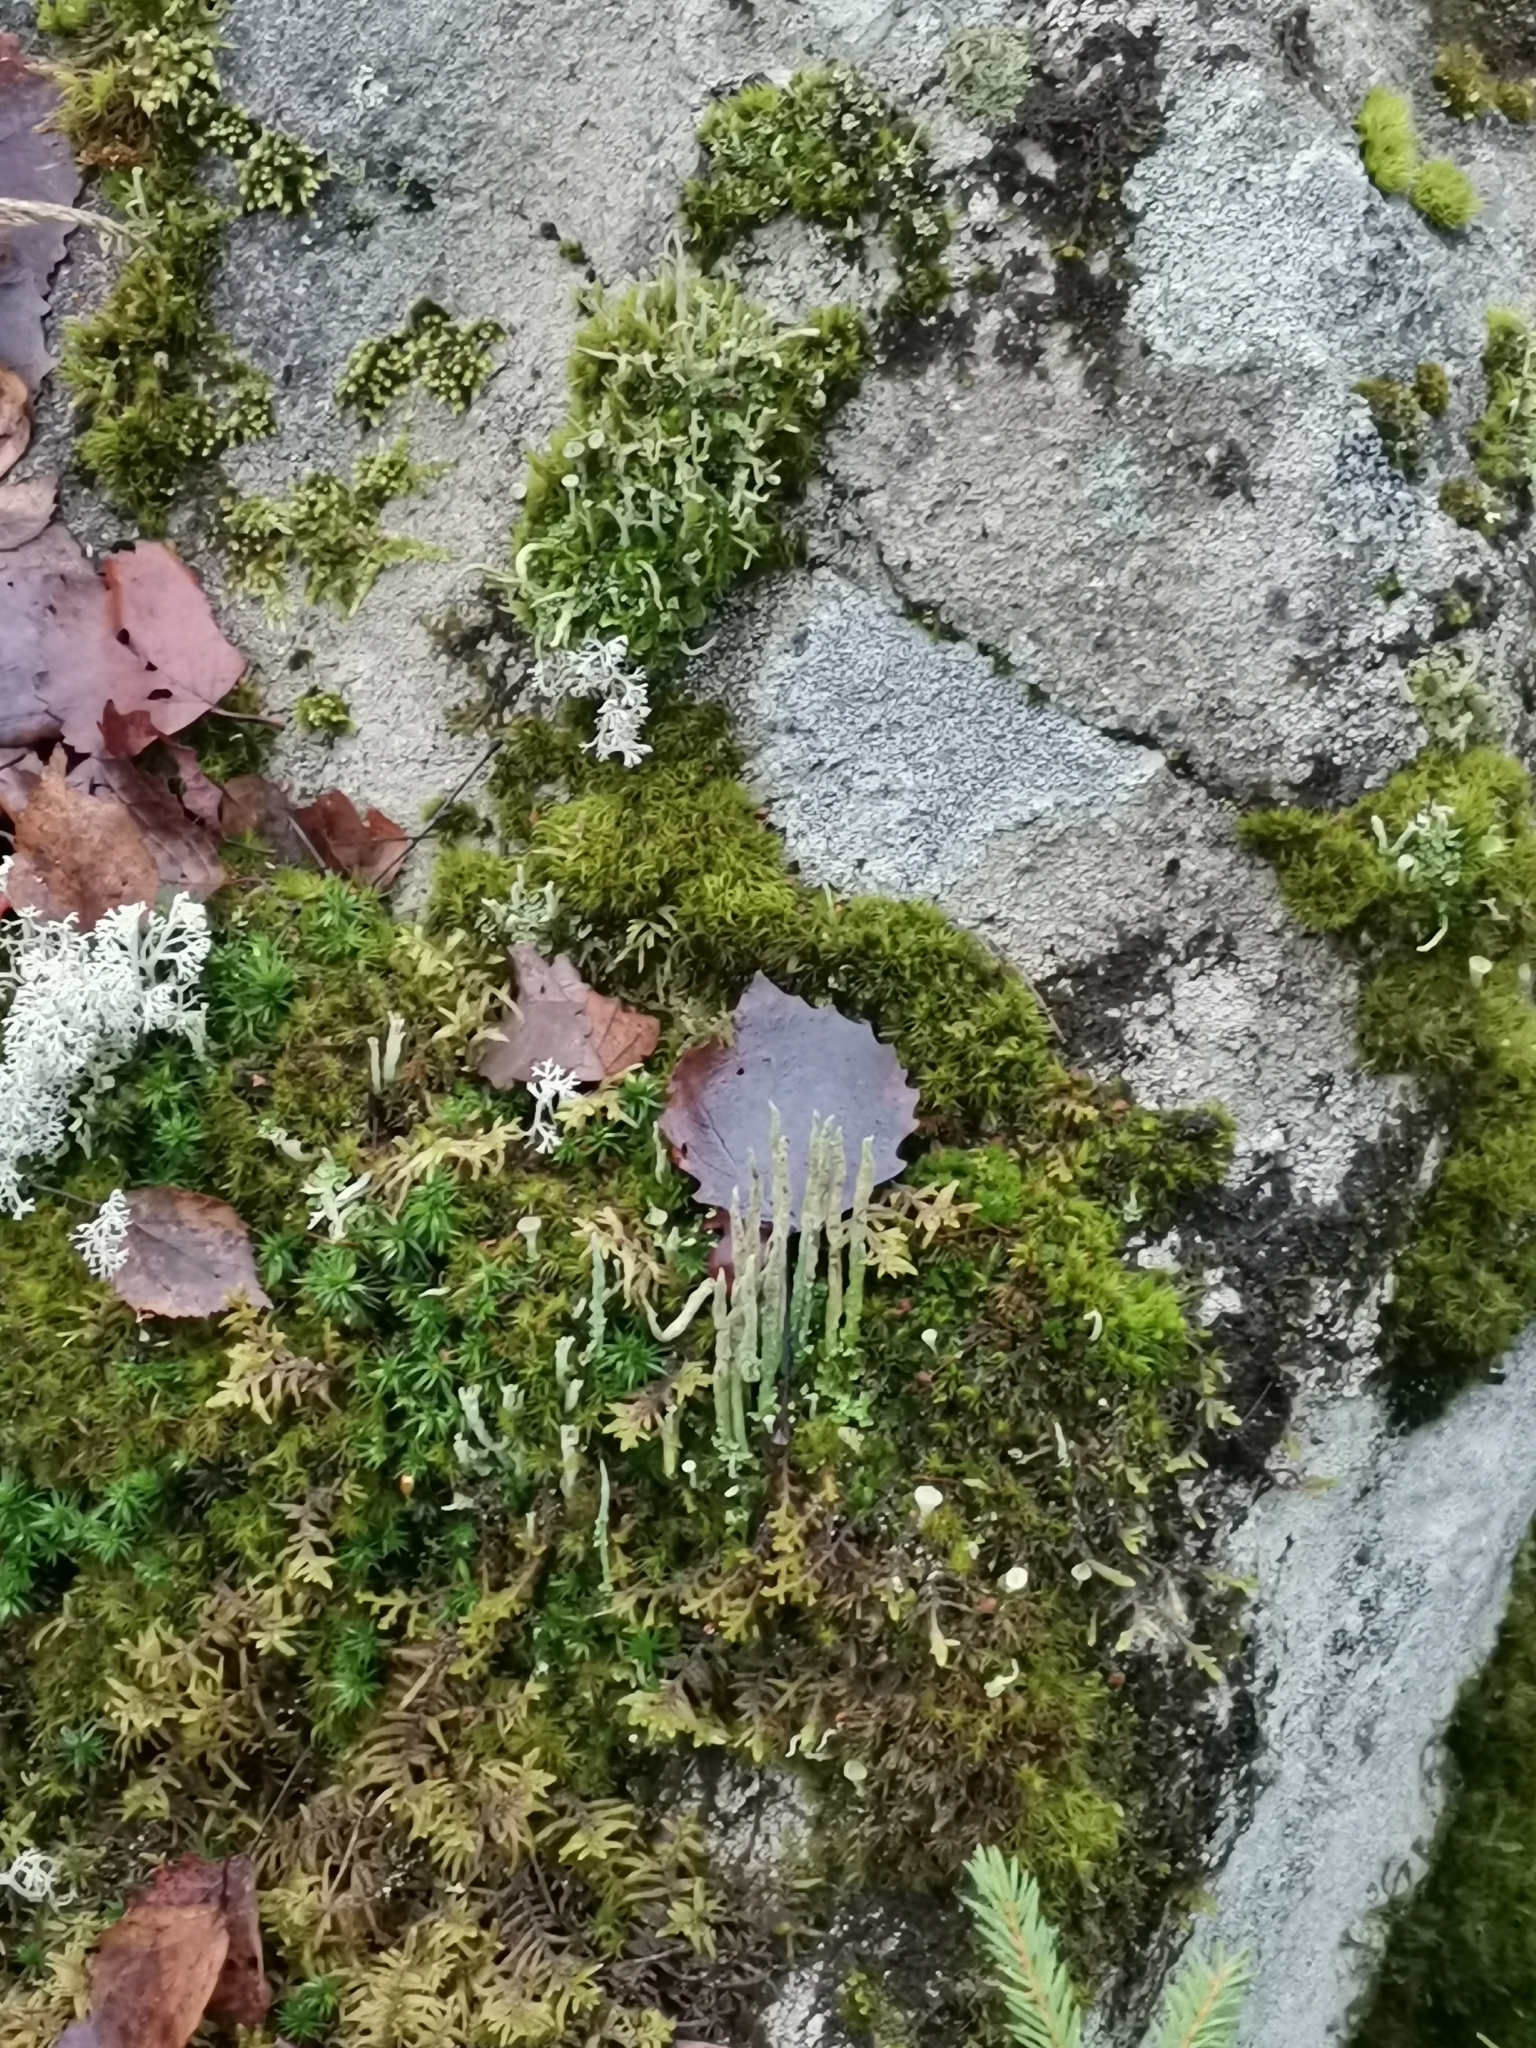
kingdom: Fungi
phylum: Ascomycota
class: Lecanoromycetes
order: Lecanorales
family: Cladoniaceae
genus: Cladonia
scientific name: Cladonia cornuta
